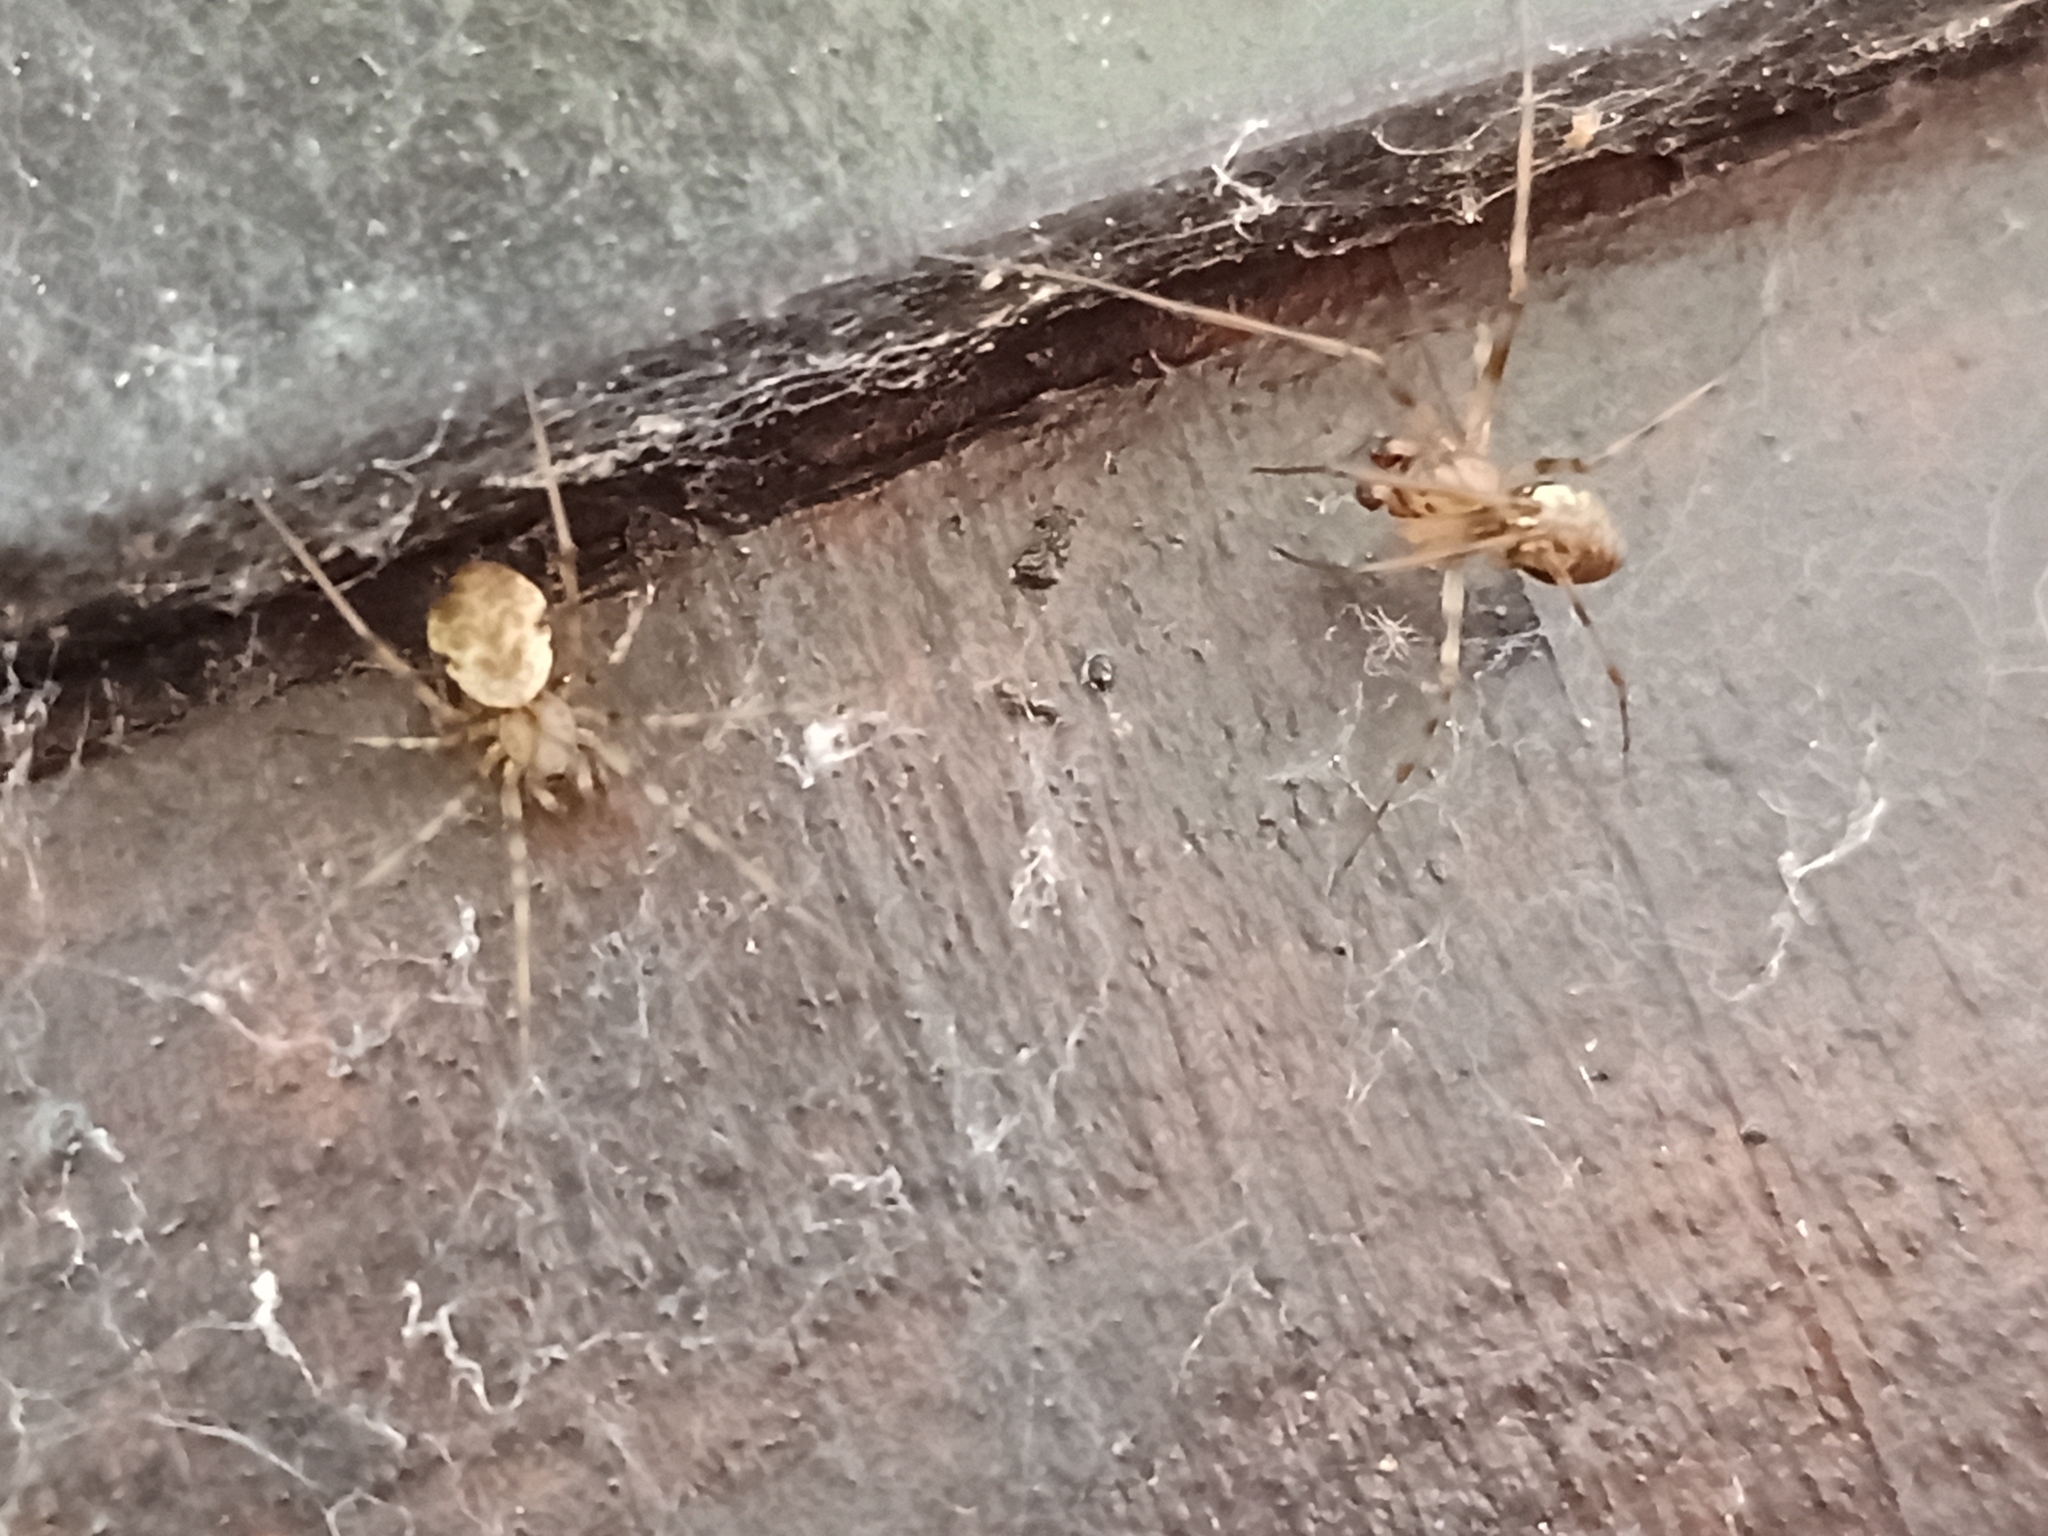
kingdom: Animalia
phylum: Arthropoda
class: Arachnida
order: Araneae
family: Linyphiidae
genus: Drapetisca
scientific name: Drapetisca socialis
